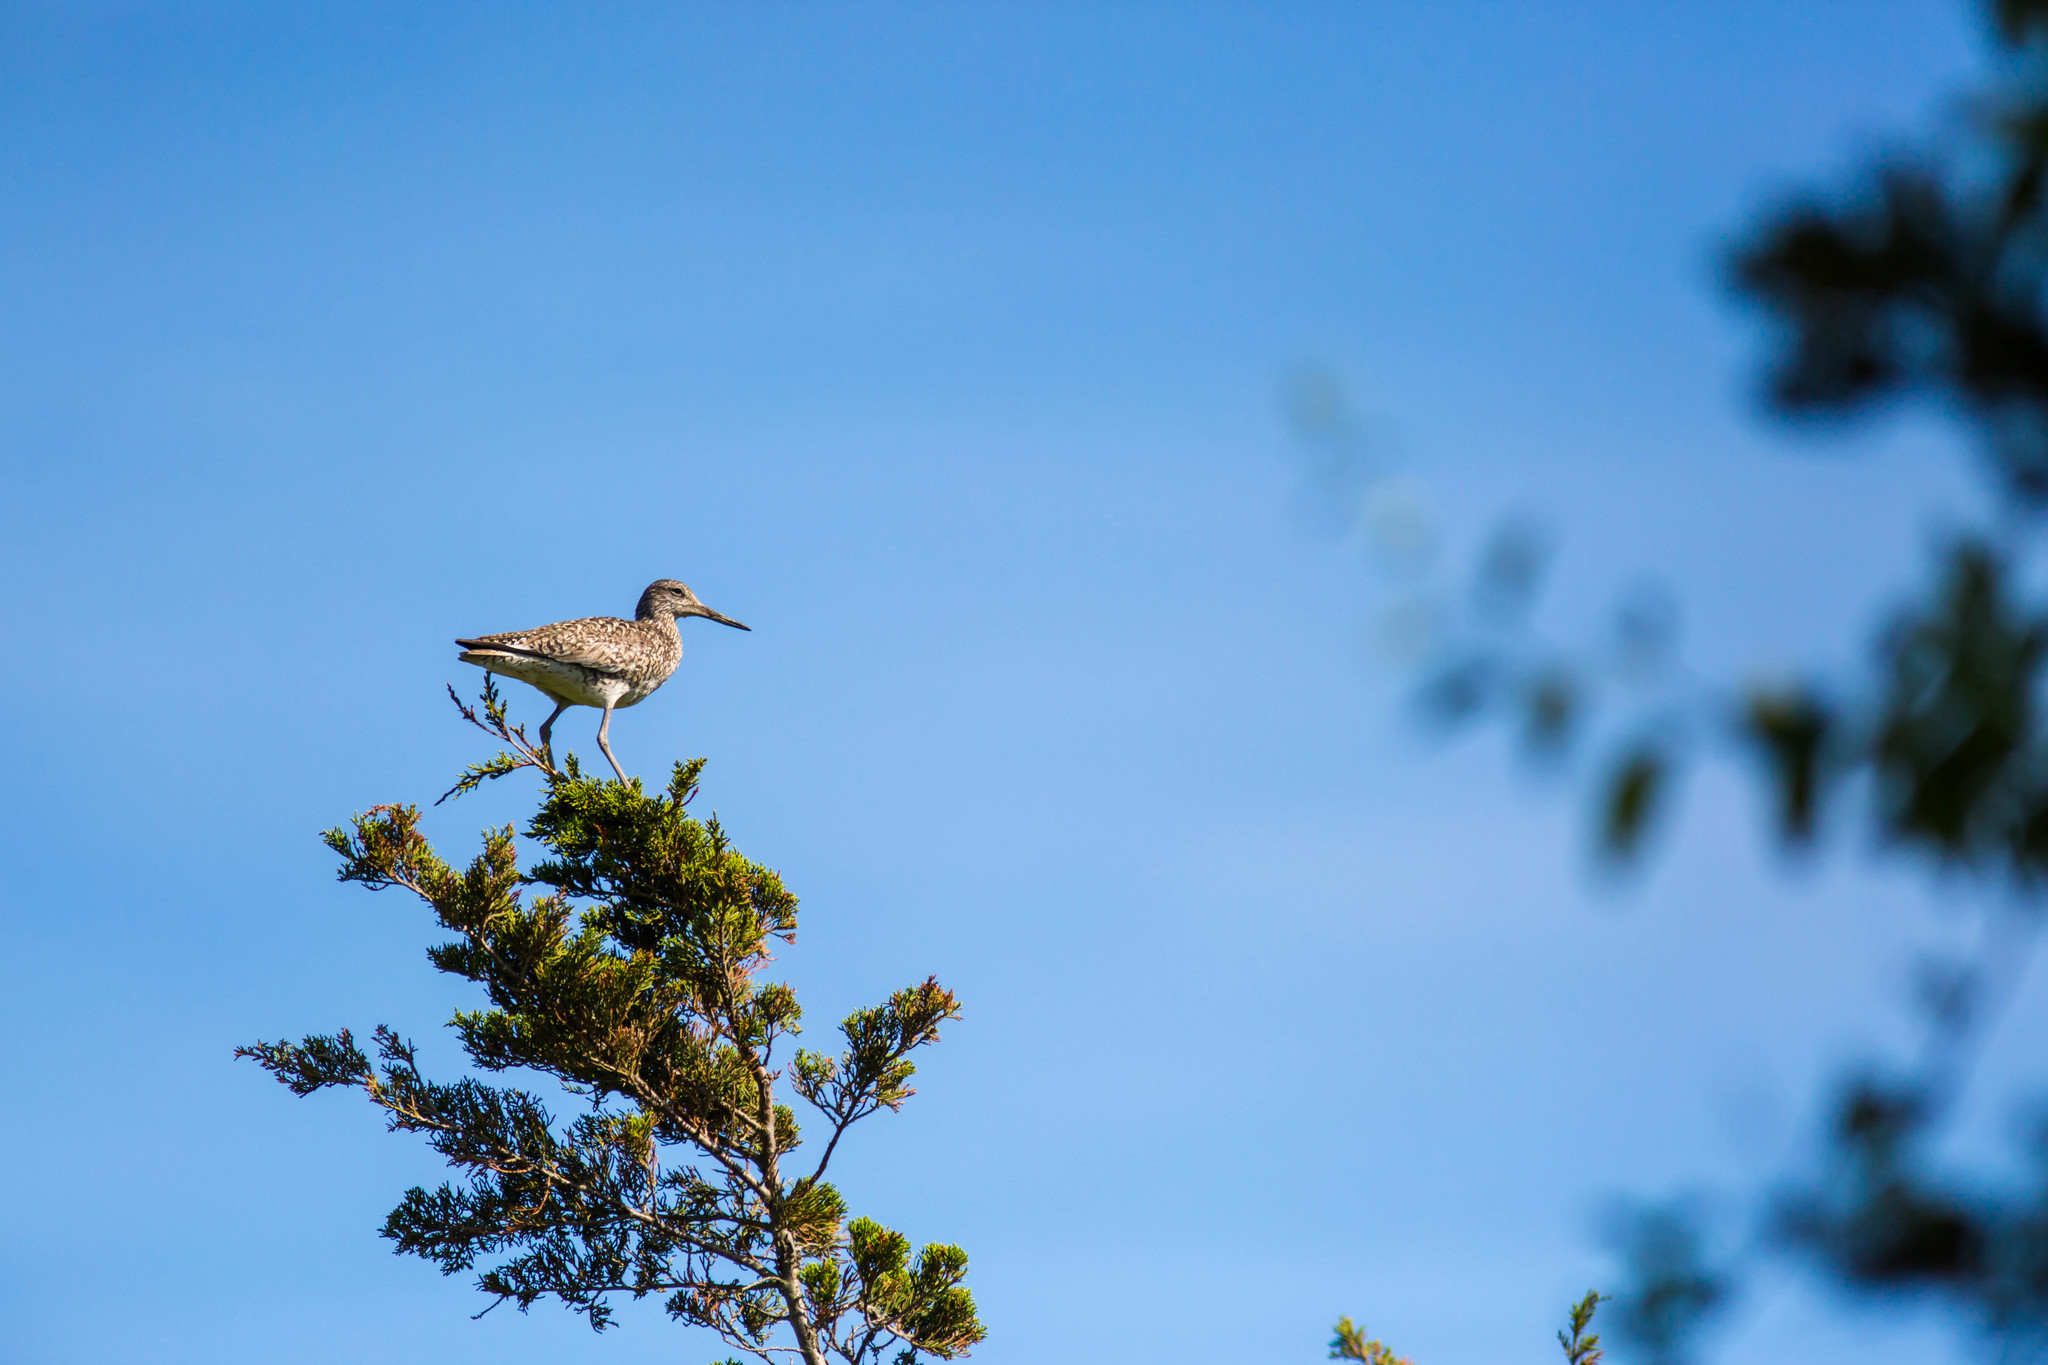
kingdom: Animalia
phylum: Chordata
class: Aves
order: Charadriiformes
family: Scolopacidae
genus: Tringa
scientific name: Tringa semipalmata
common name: Willet
